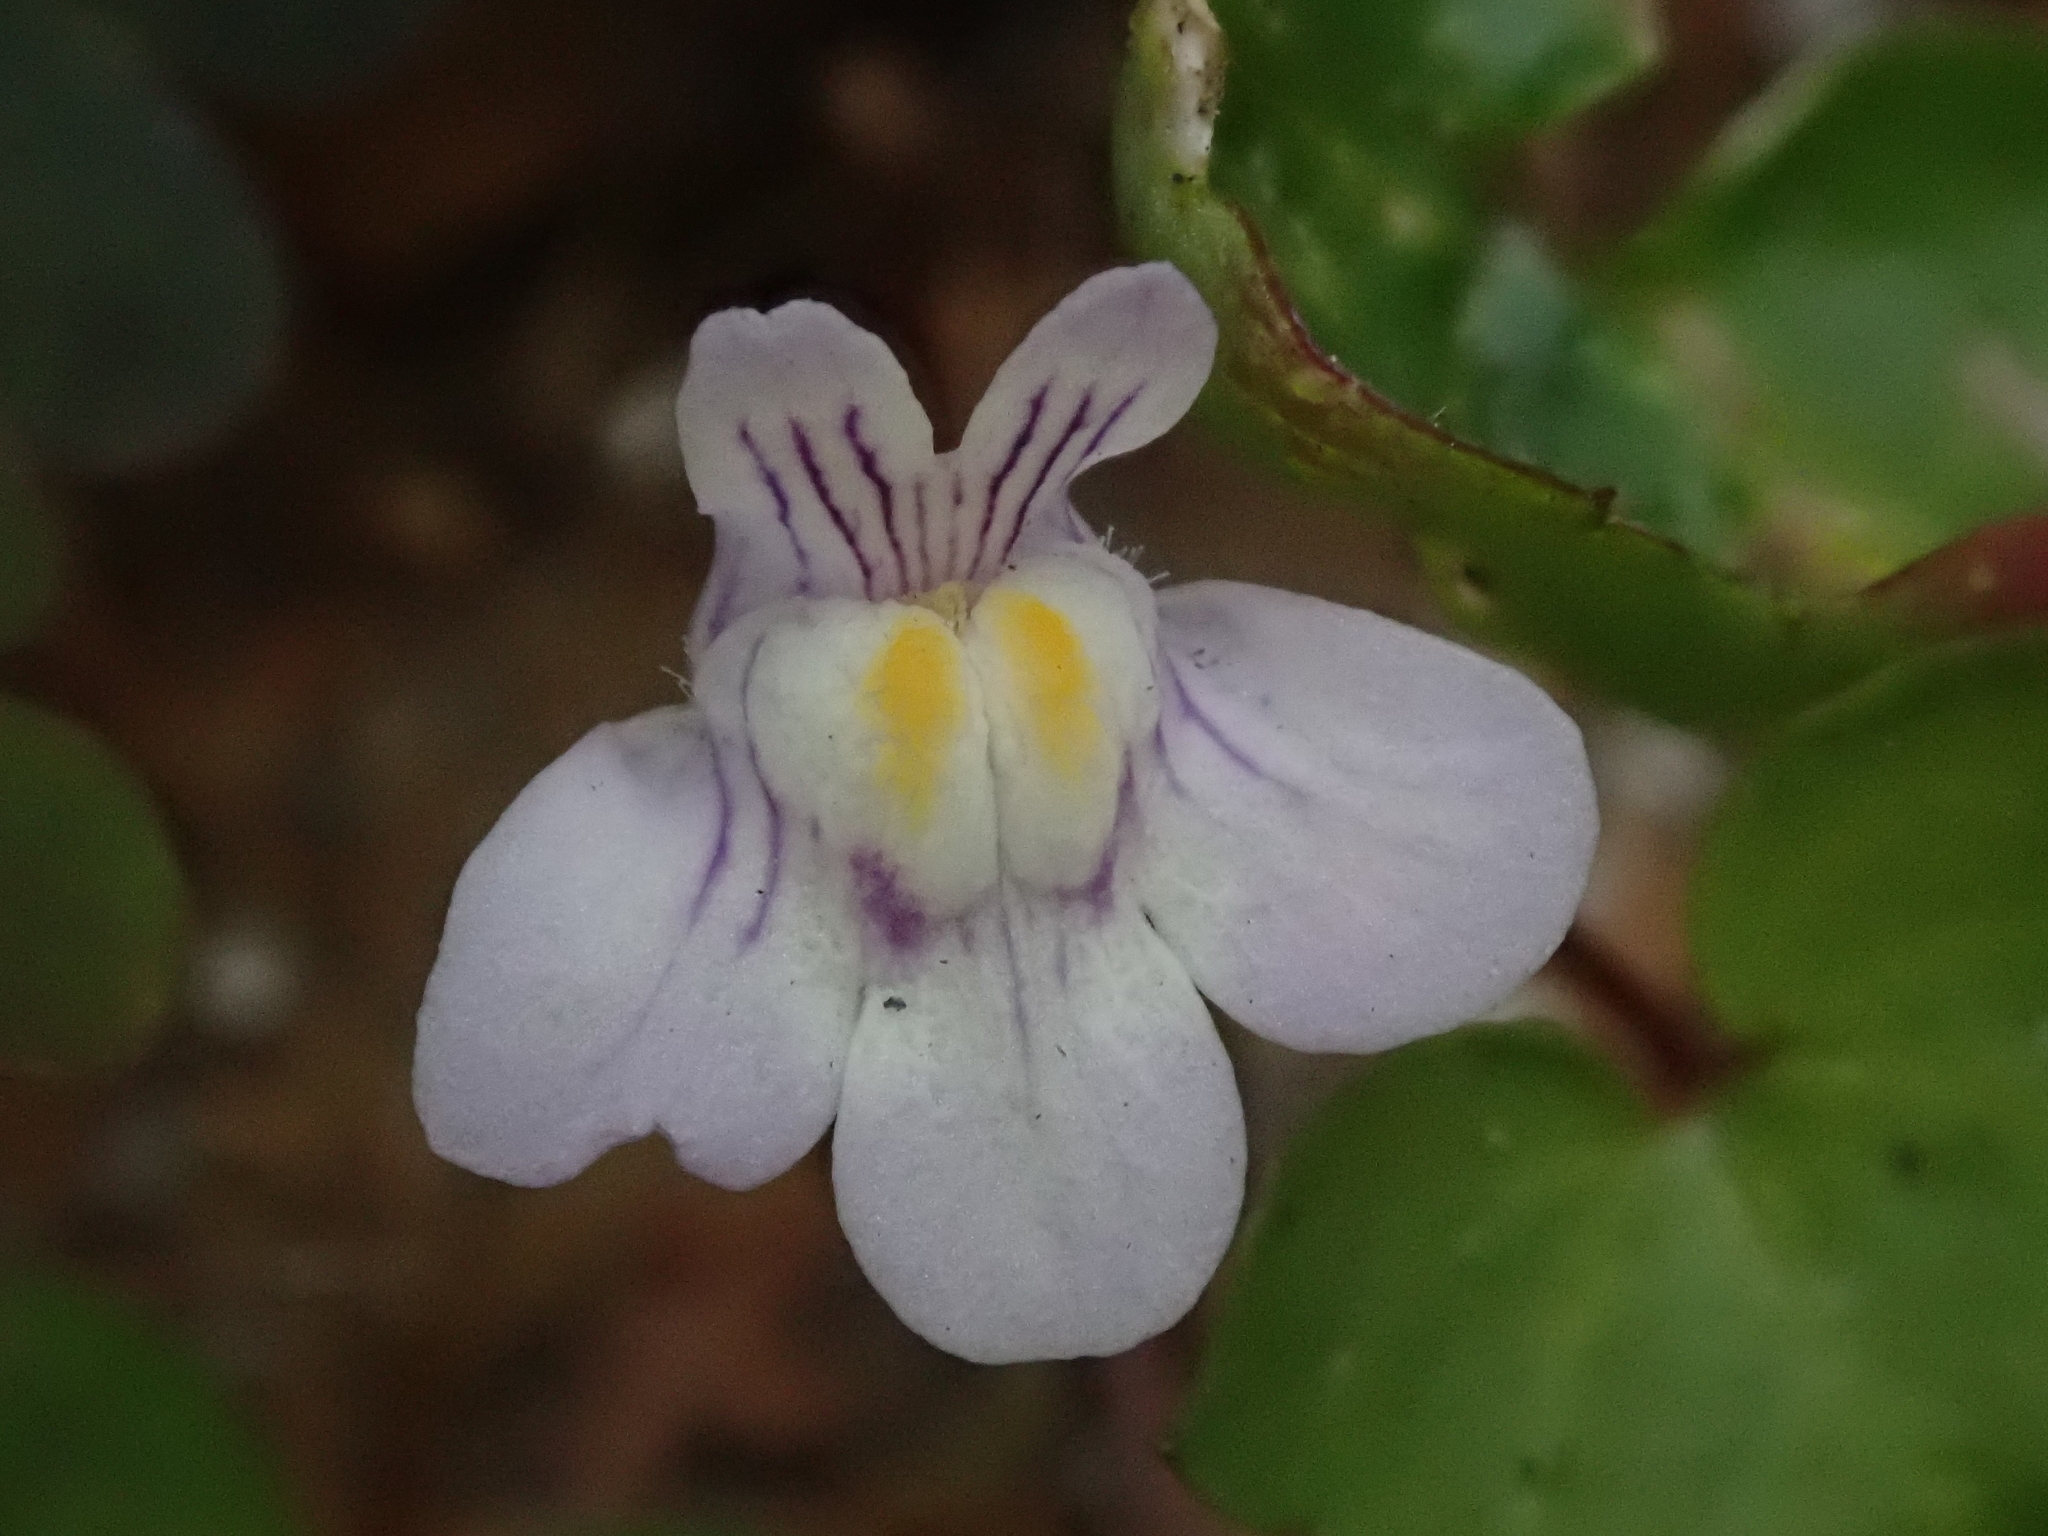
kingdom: Plantae
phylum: Tracheophyta
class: Magnoliopsida
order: Lamiales
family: Plantaginaceae
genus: Cymbalaria
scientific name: Cymbalaria muralis
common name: Ivy-leaved toadflax
